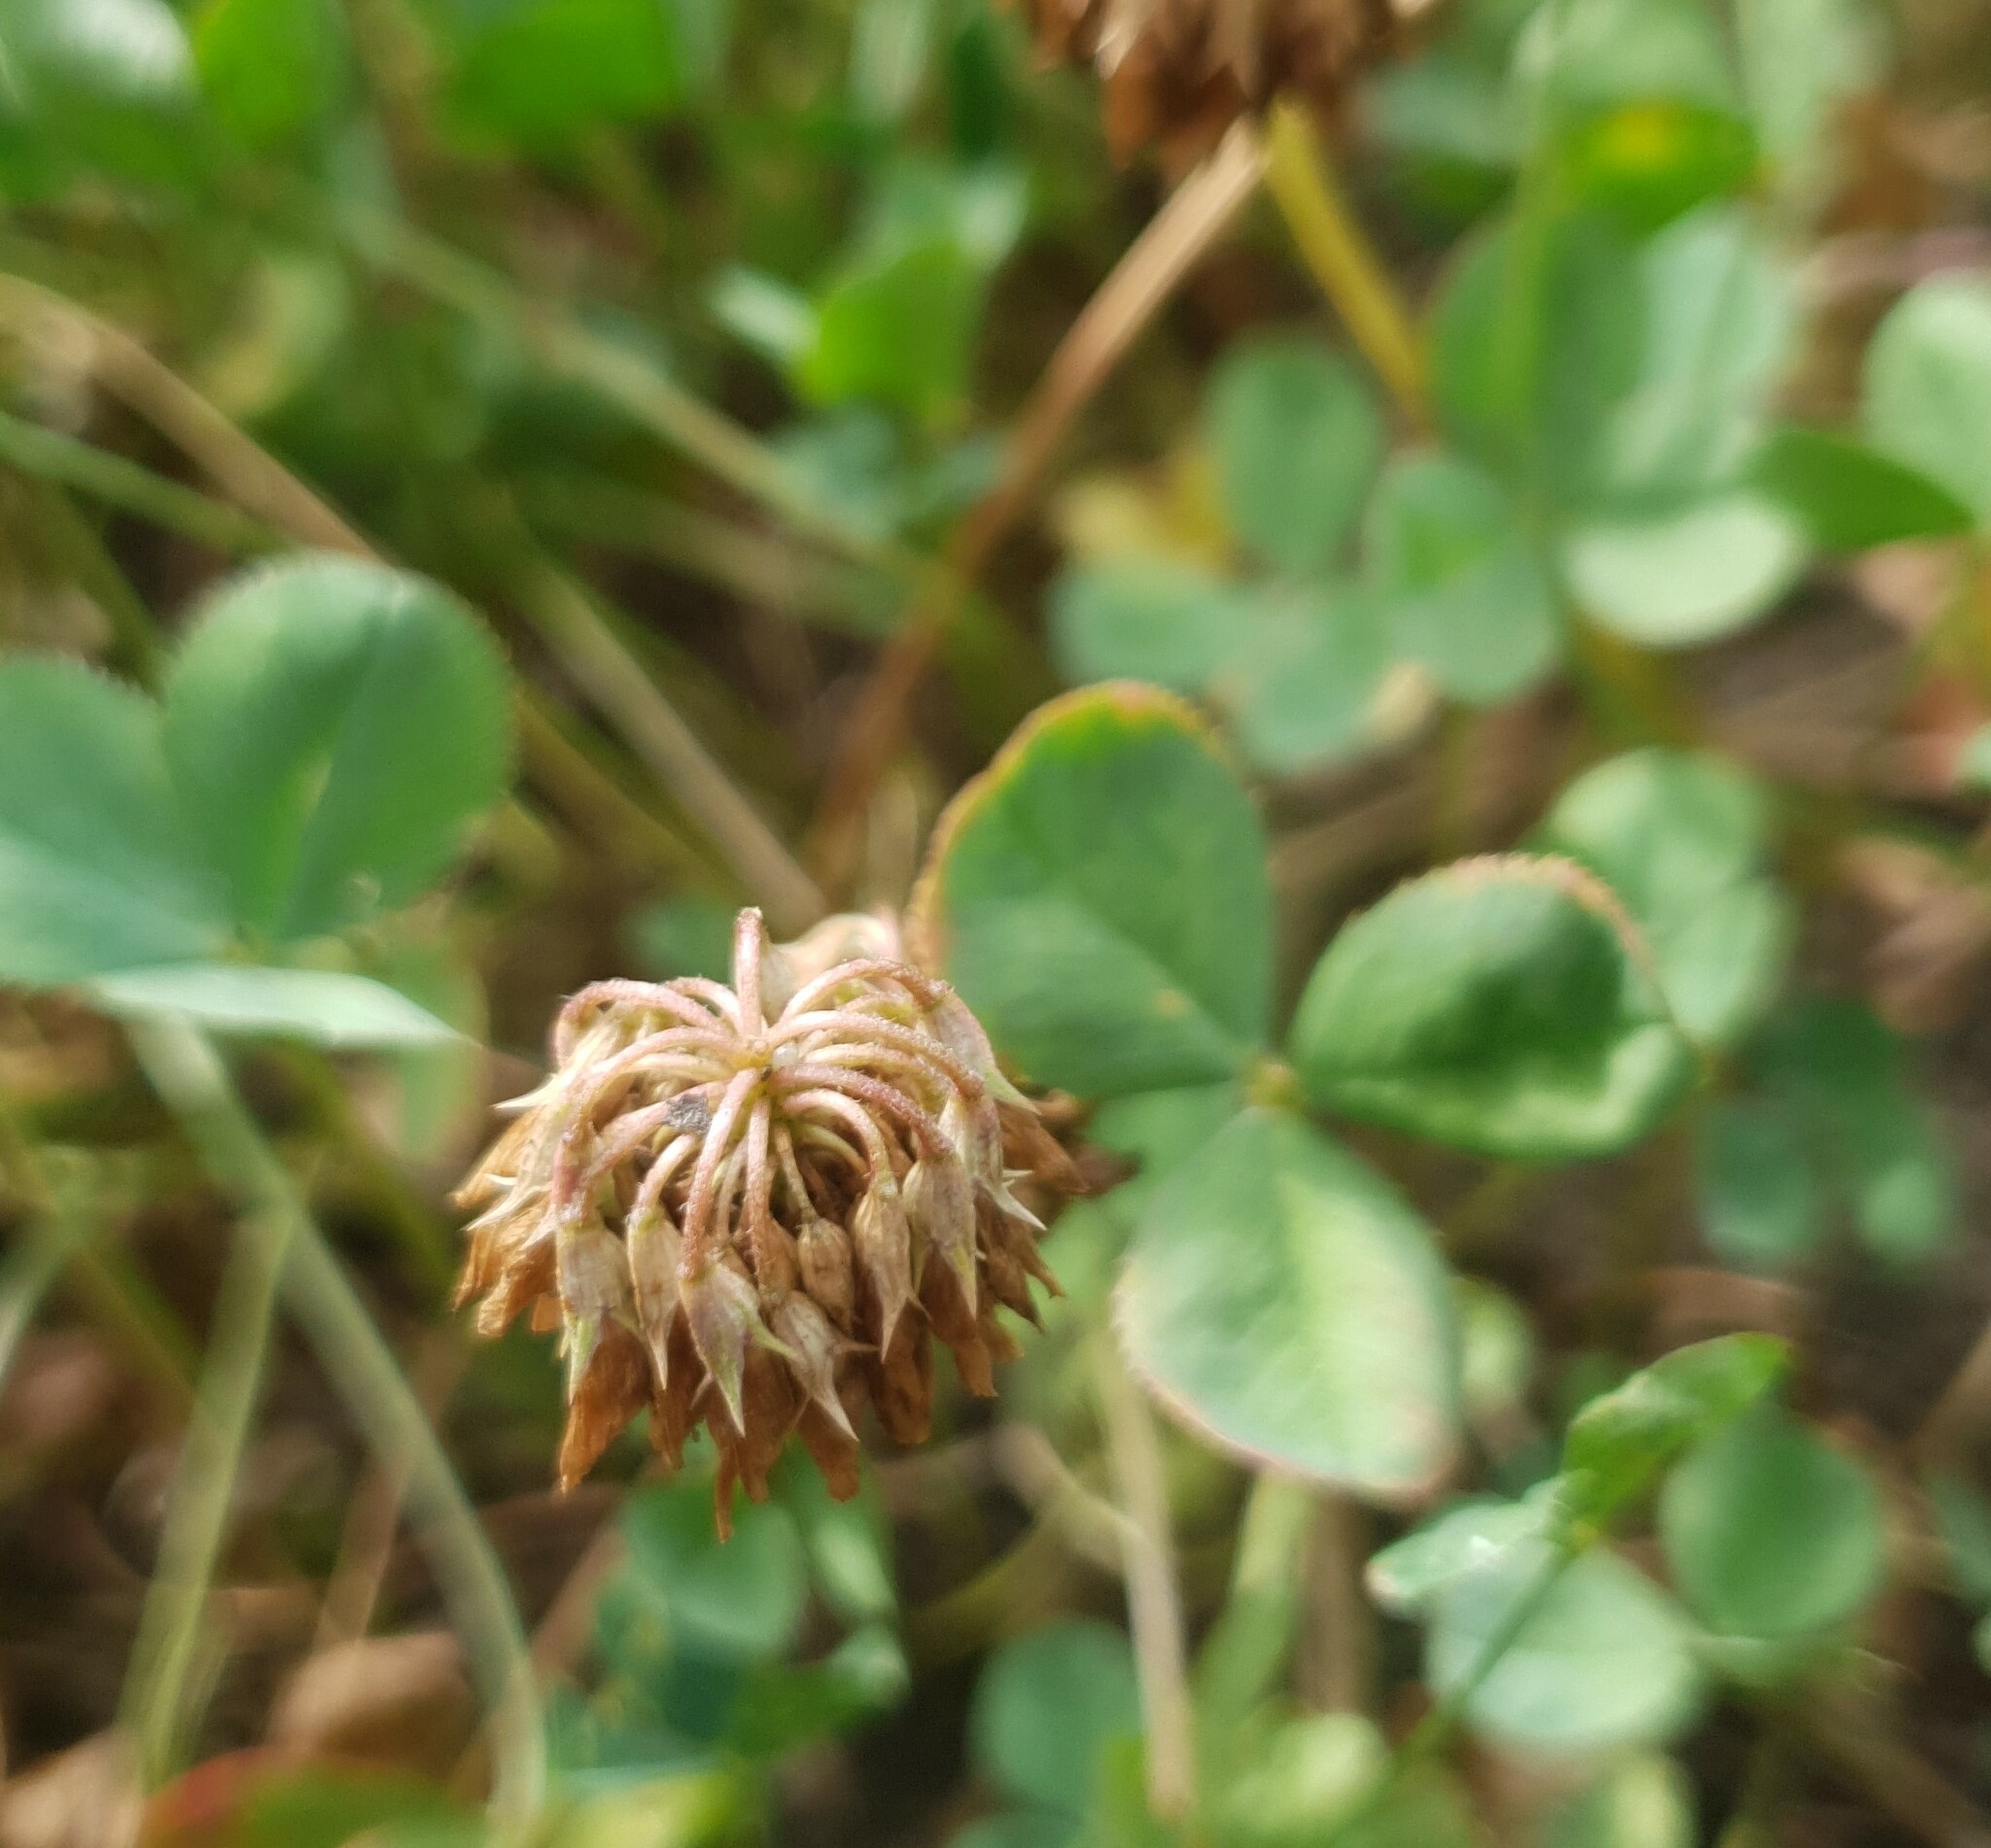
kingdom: Plantae
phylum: Tracheophyta
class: Magnoliopsida
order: Fabales
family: Fabaceae
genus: Trifolium
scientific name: Trifolium repens
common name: White clover
